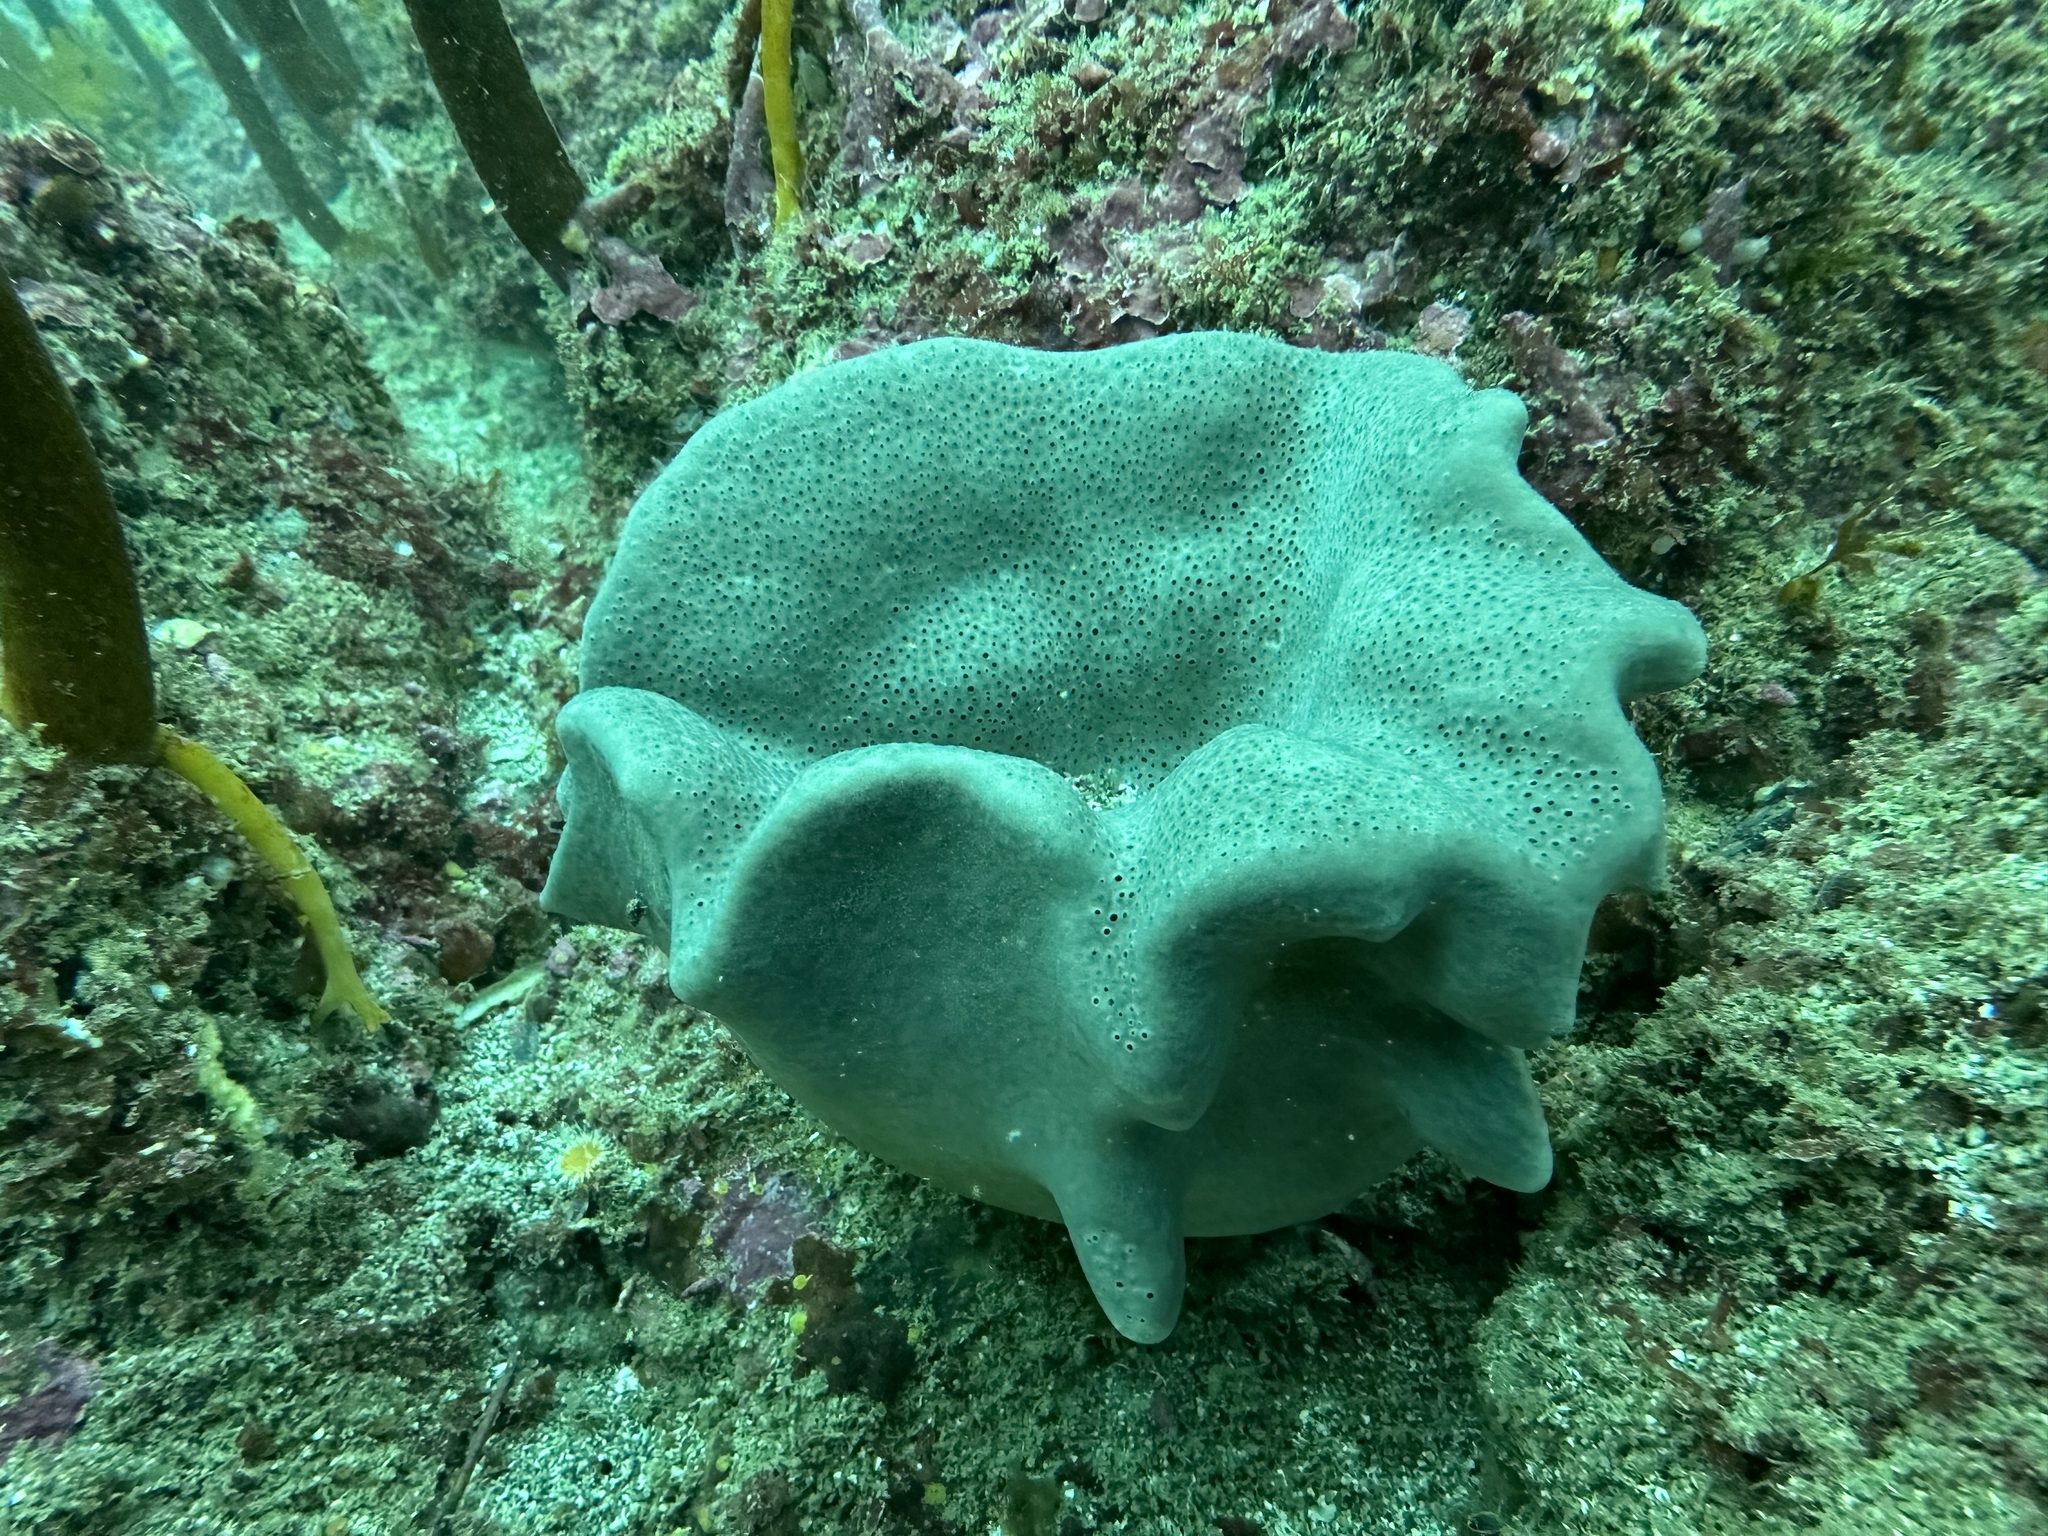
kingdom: Animalia
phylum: Porifera
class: Demospongiae
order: Dictyoceratida
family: Irciniidae
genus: Psammocinia
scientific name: Psammocinia hawere
